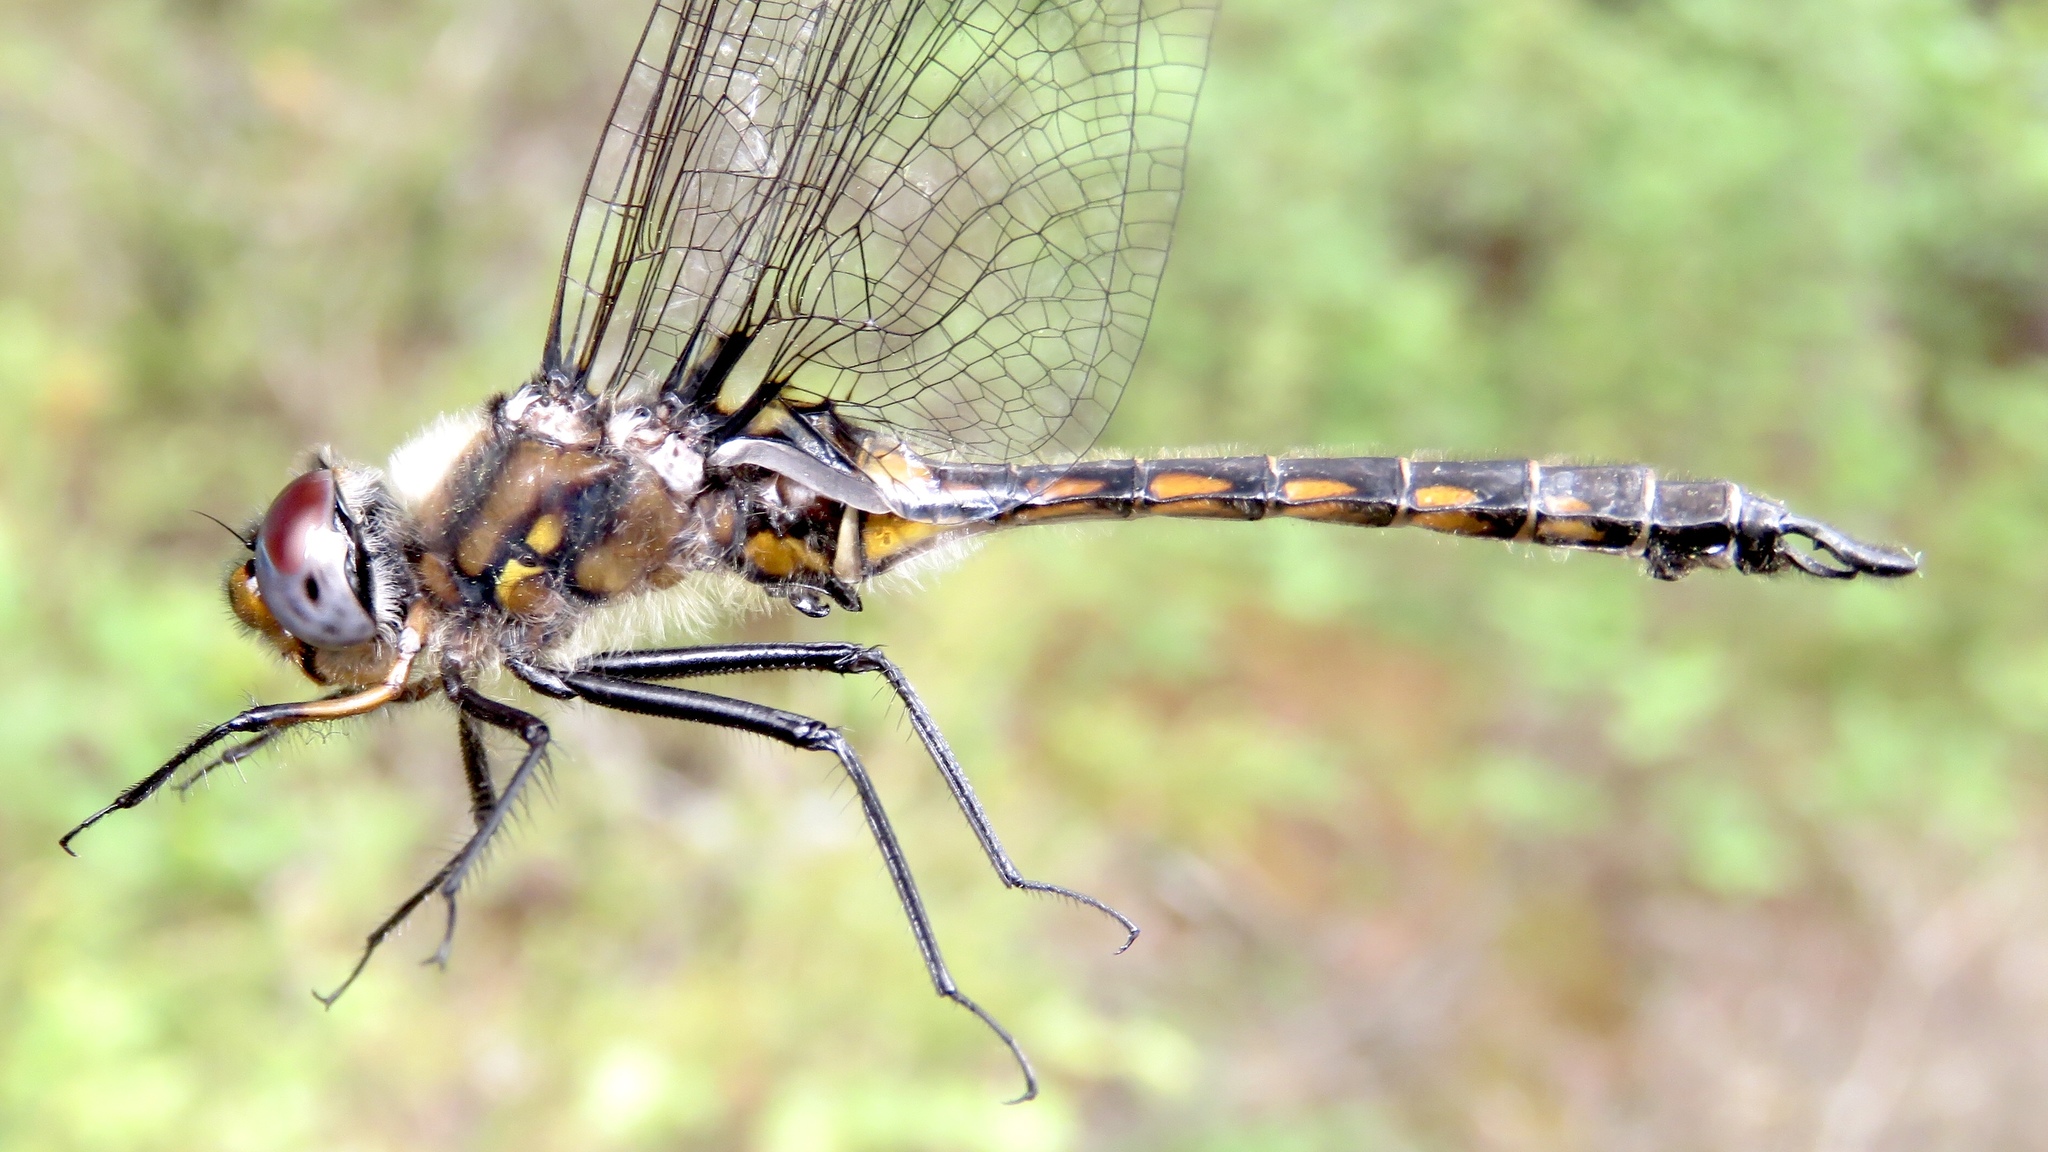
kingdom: Animalia
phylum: Arthropoda
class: Insecta
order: Odonata
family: Corduliidae
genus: Epitheca
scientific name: Epitheca spinigera
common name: Spiny baskettail
